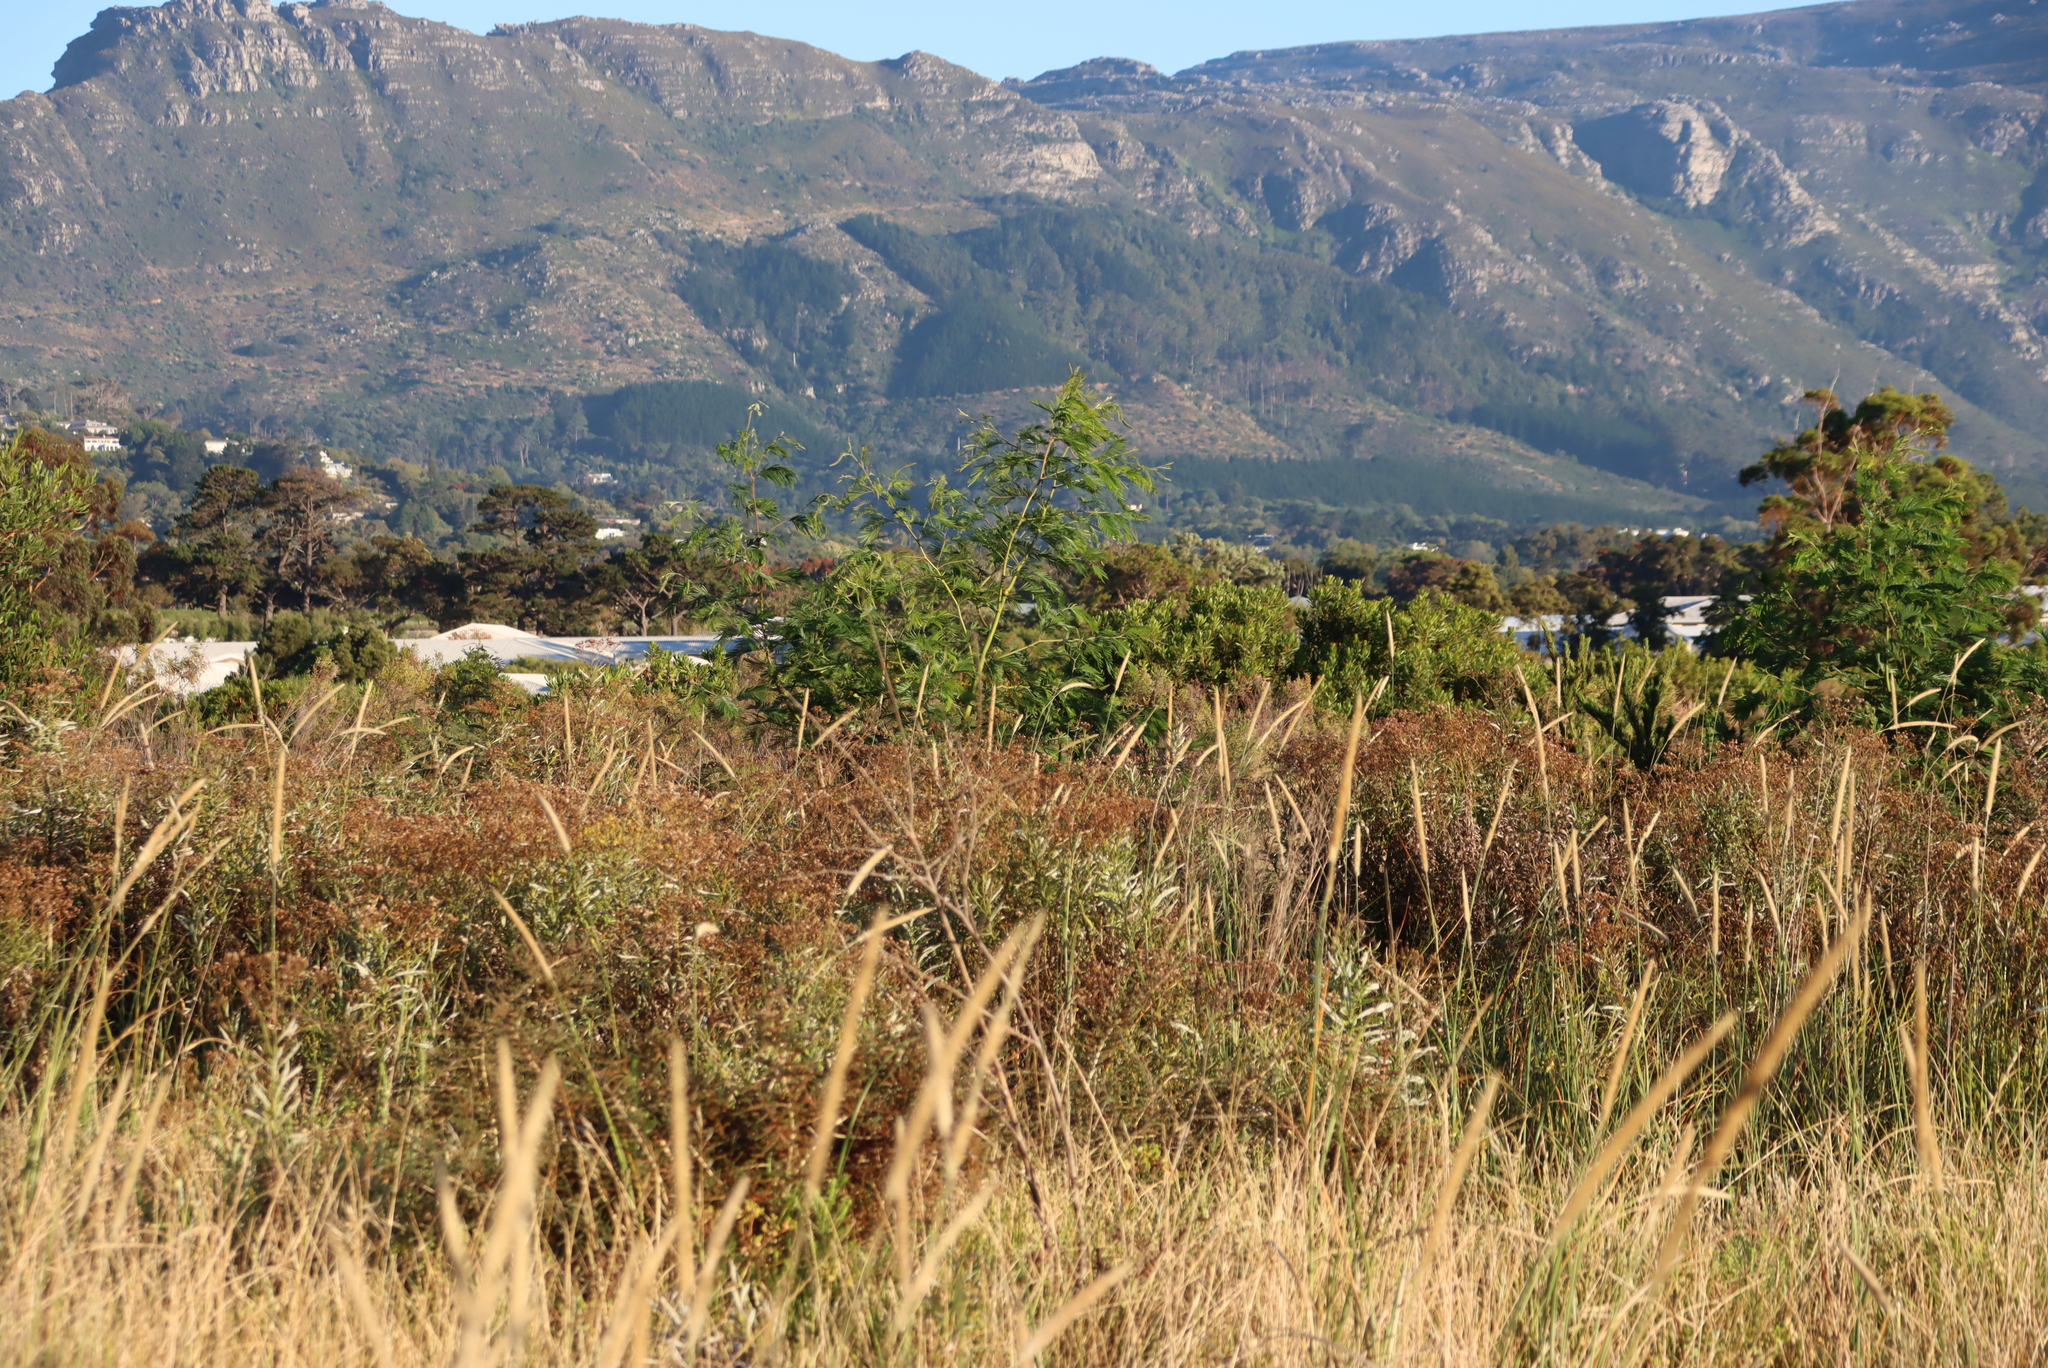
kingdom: Plantae
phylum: Tracheophyta
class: Magnoliopsida
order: Fabales
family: Fabaceae
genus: Acacia
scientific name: Acacia mearnsii
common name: Black wattle
